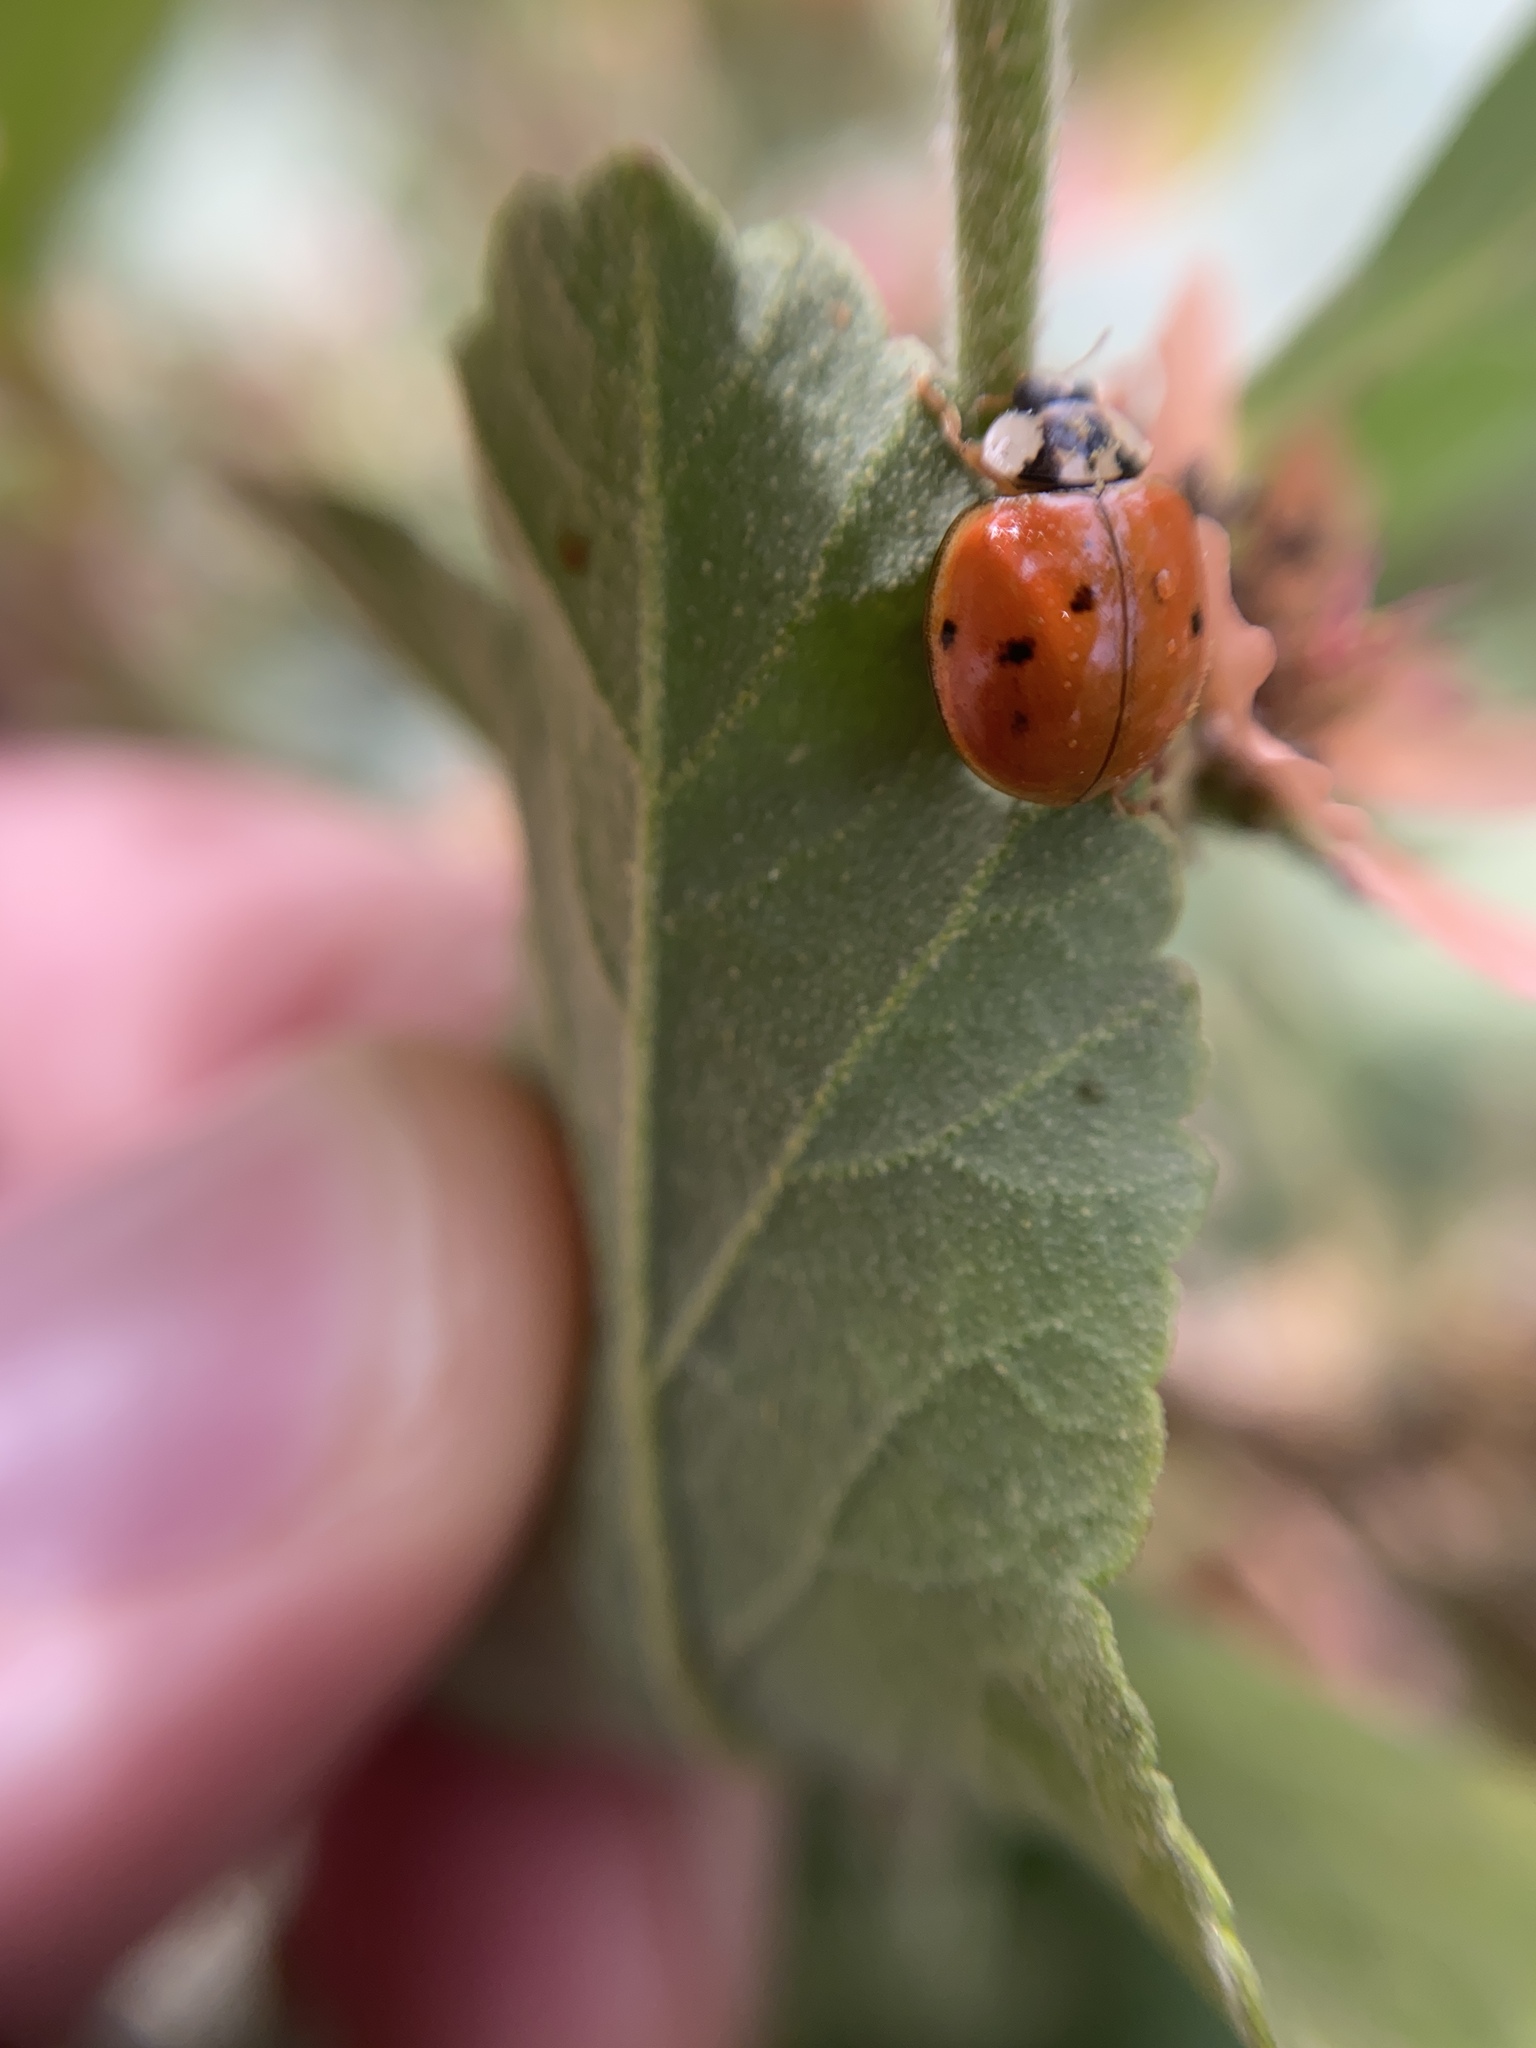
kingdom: Animalia
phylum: Arthropoda
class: Insecta
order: Coleoptera
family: Coccinellidae
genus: Harmonia
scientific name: Harmonia axyridis
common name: Harlequin ladybird
